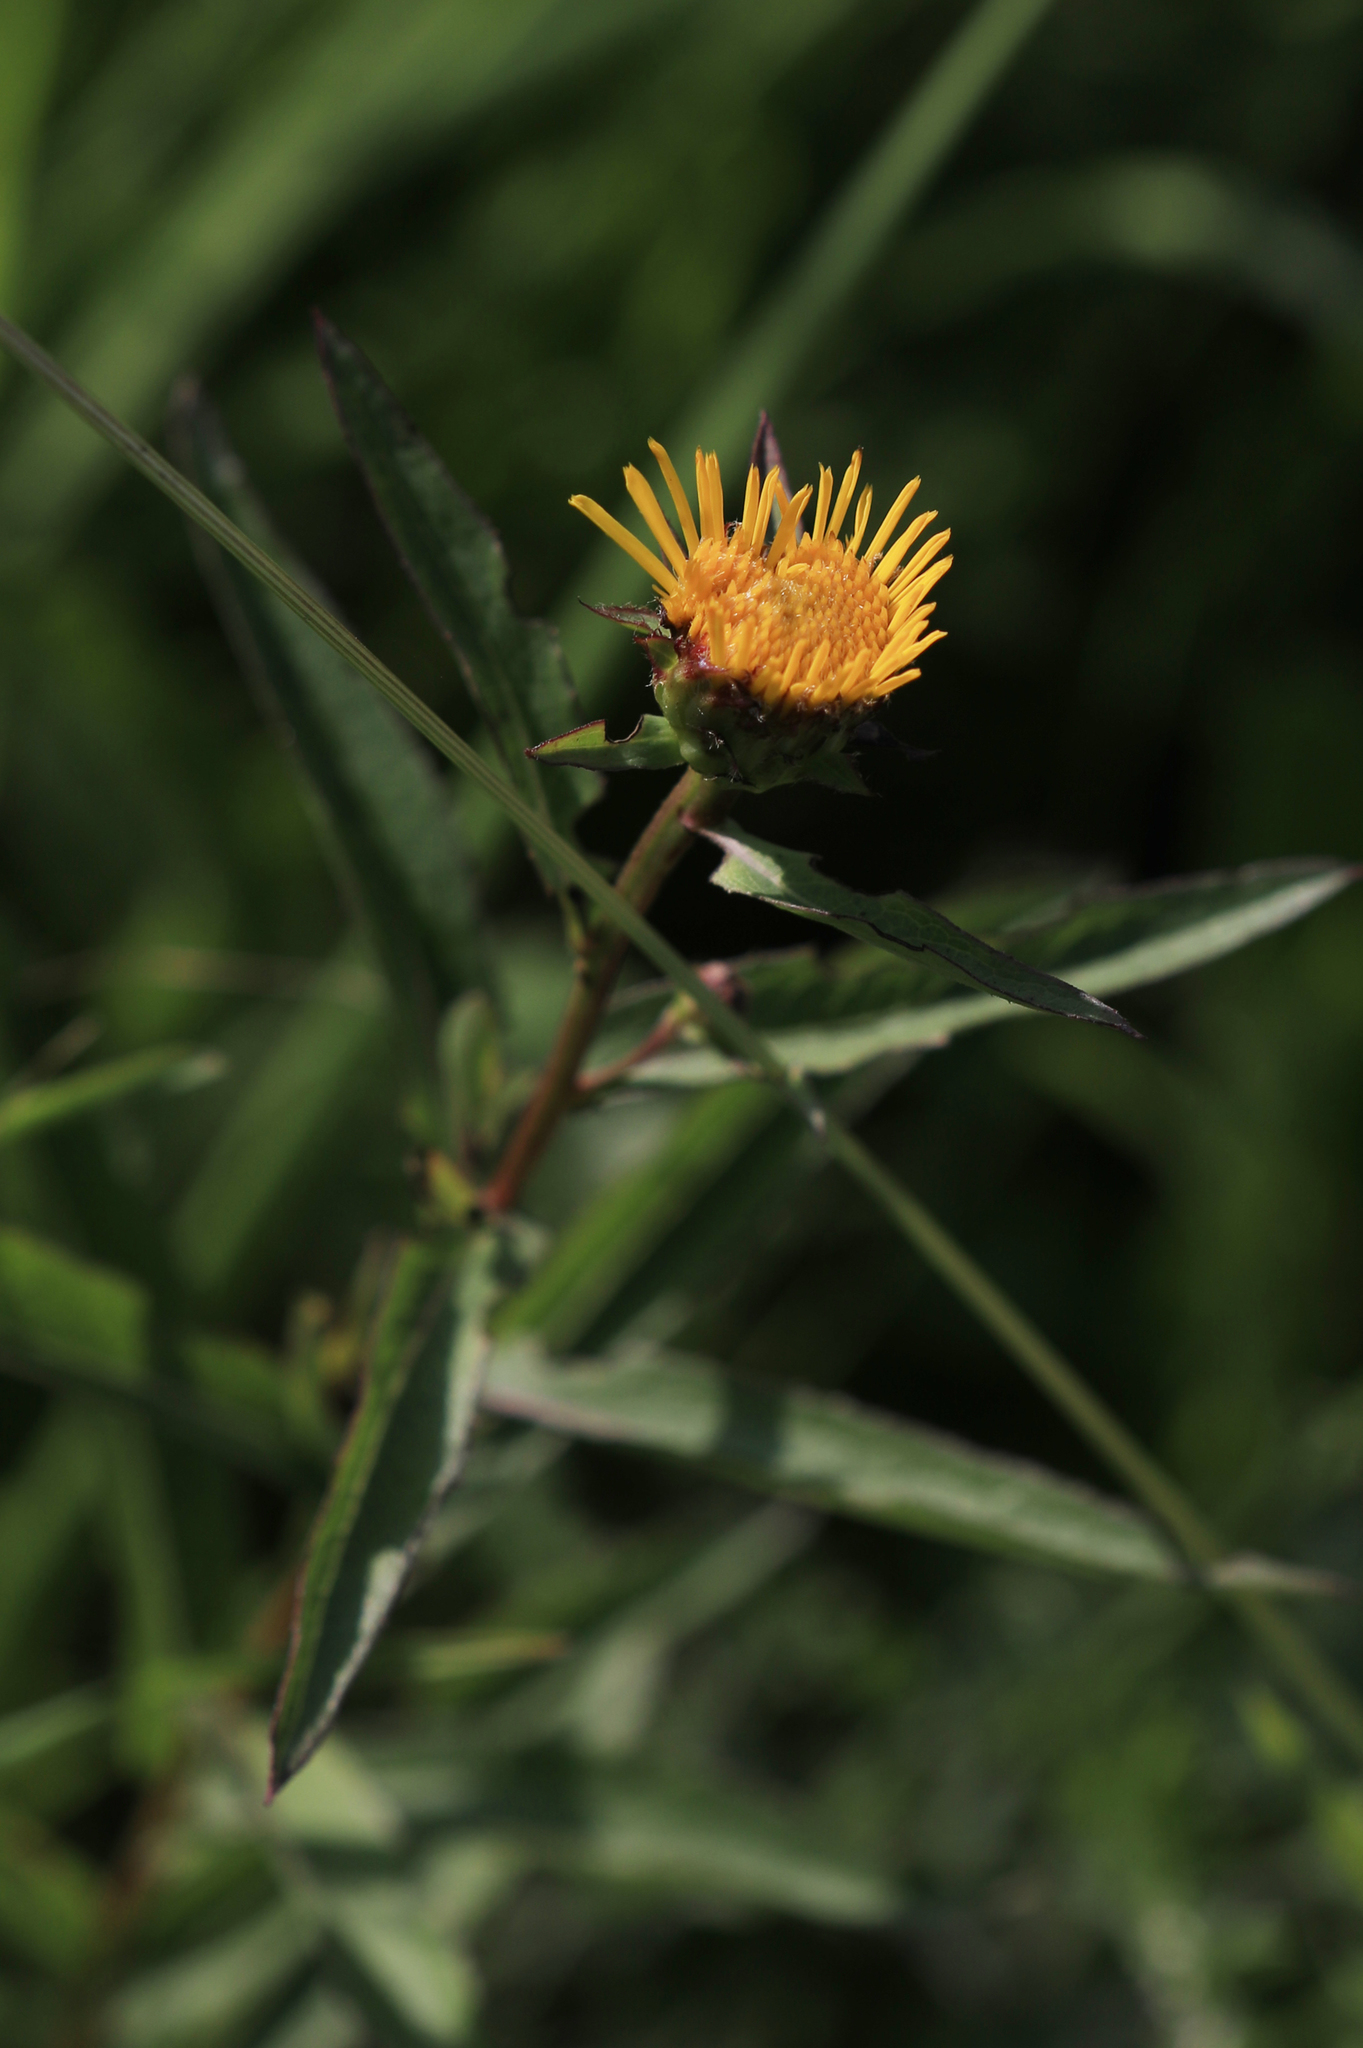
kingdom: Plantae
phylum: Tracheophyta
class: Magnoliopsida
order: Asterales
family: Asteraceae
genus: Pentanema
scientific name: Pentanema salicinum
